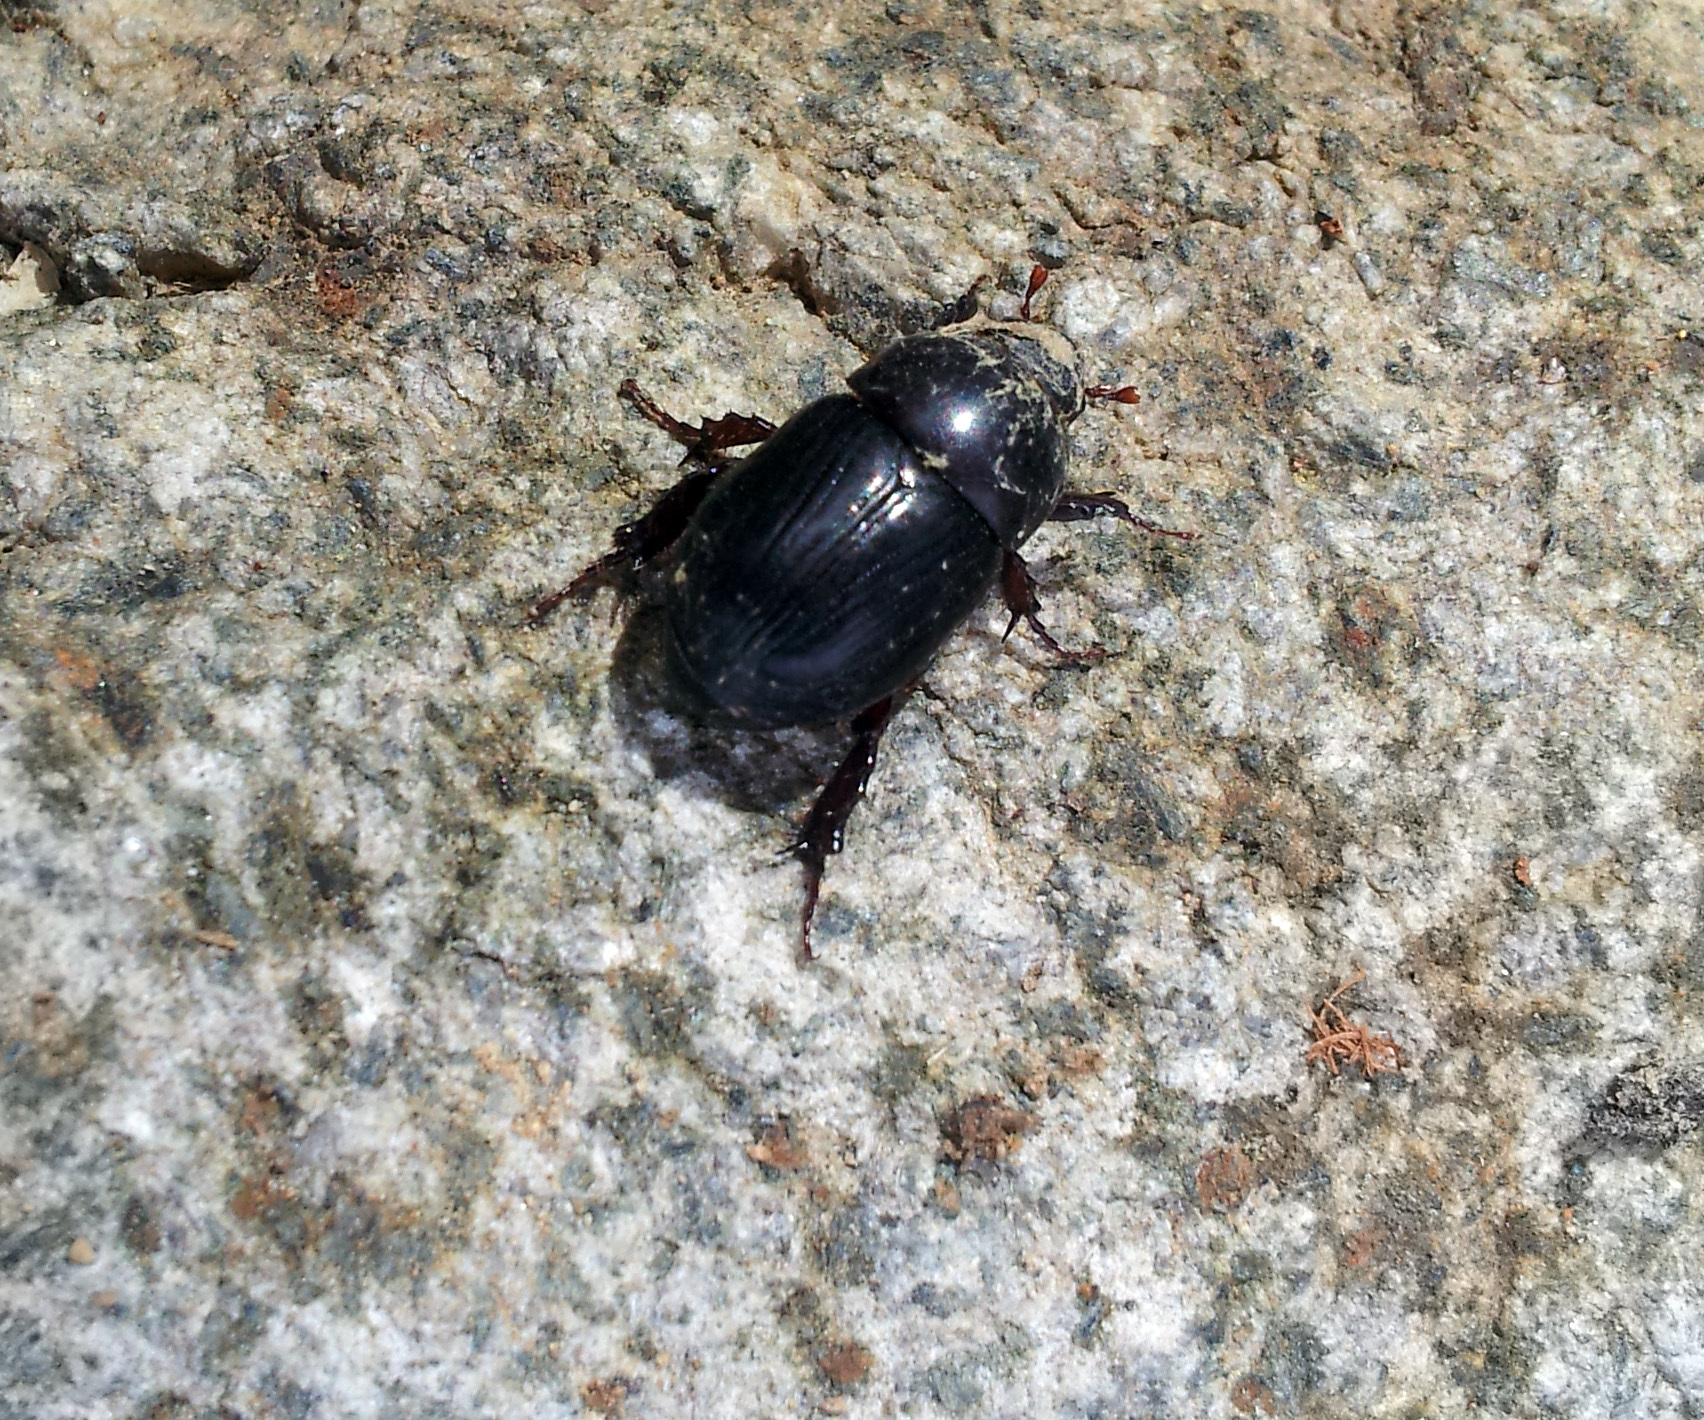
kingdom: Animalia
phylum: Arthropoda
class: Insecta
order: Coleoptera
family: Scarabaeidae
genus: Heteronychus
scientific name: Heteronychus arator
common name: African black beetle
